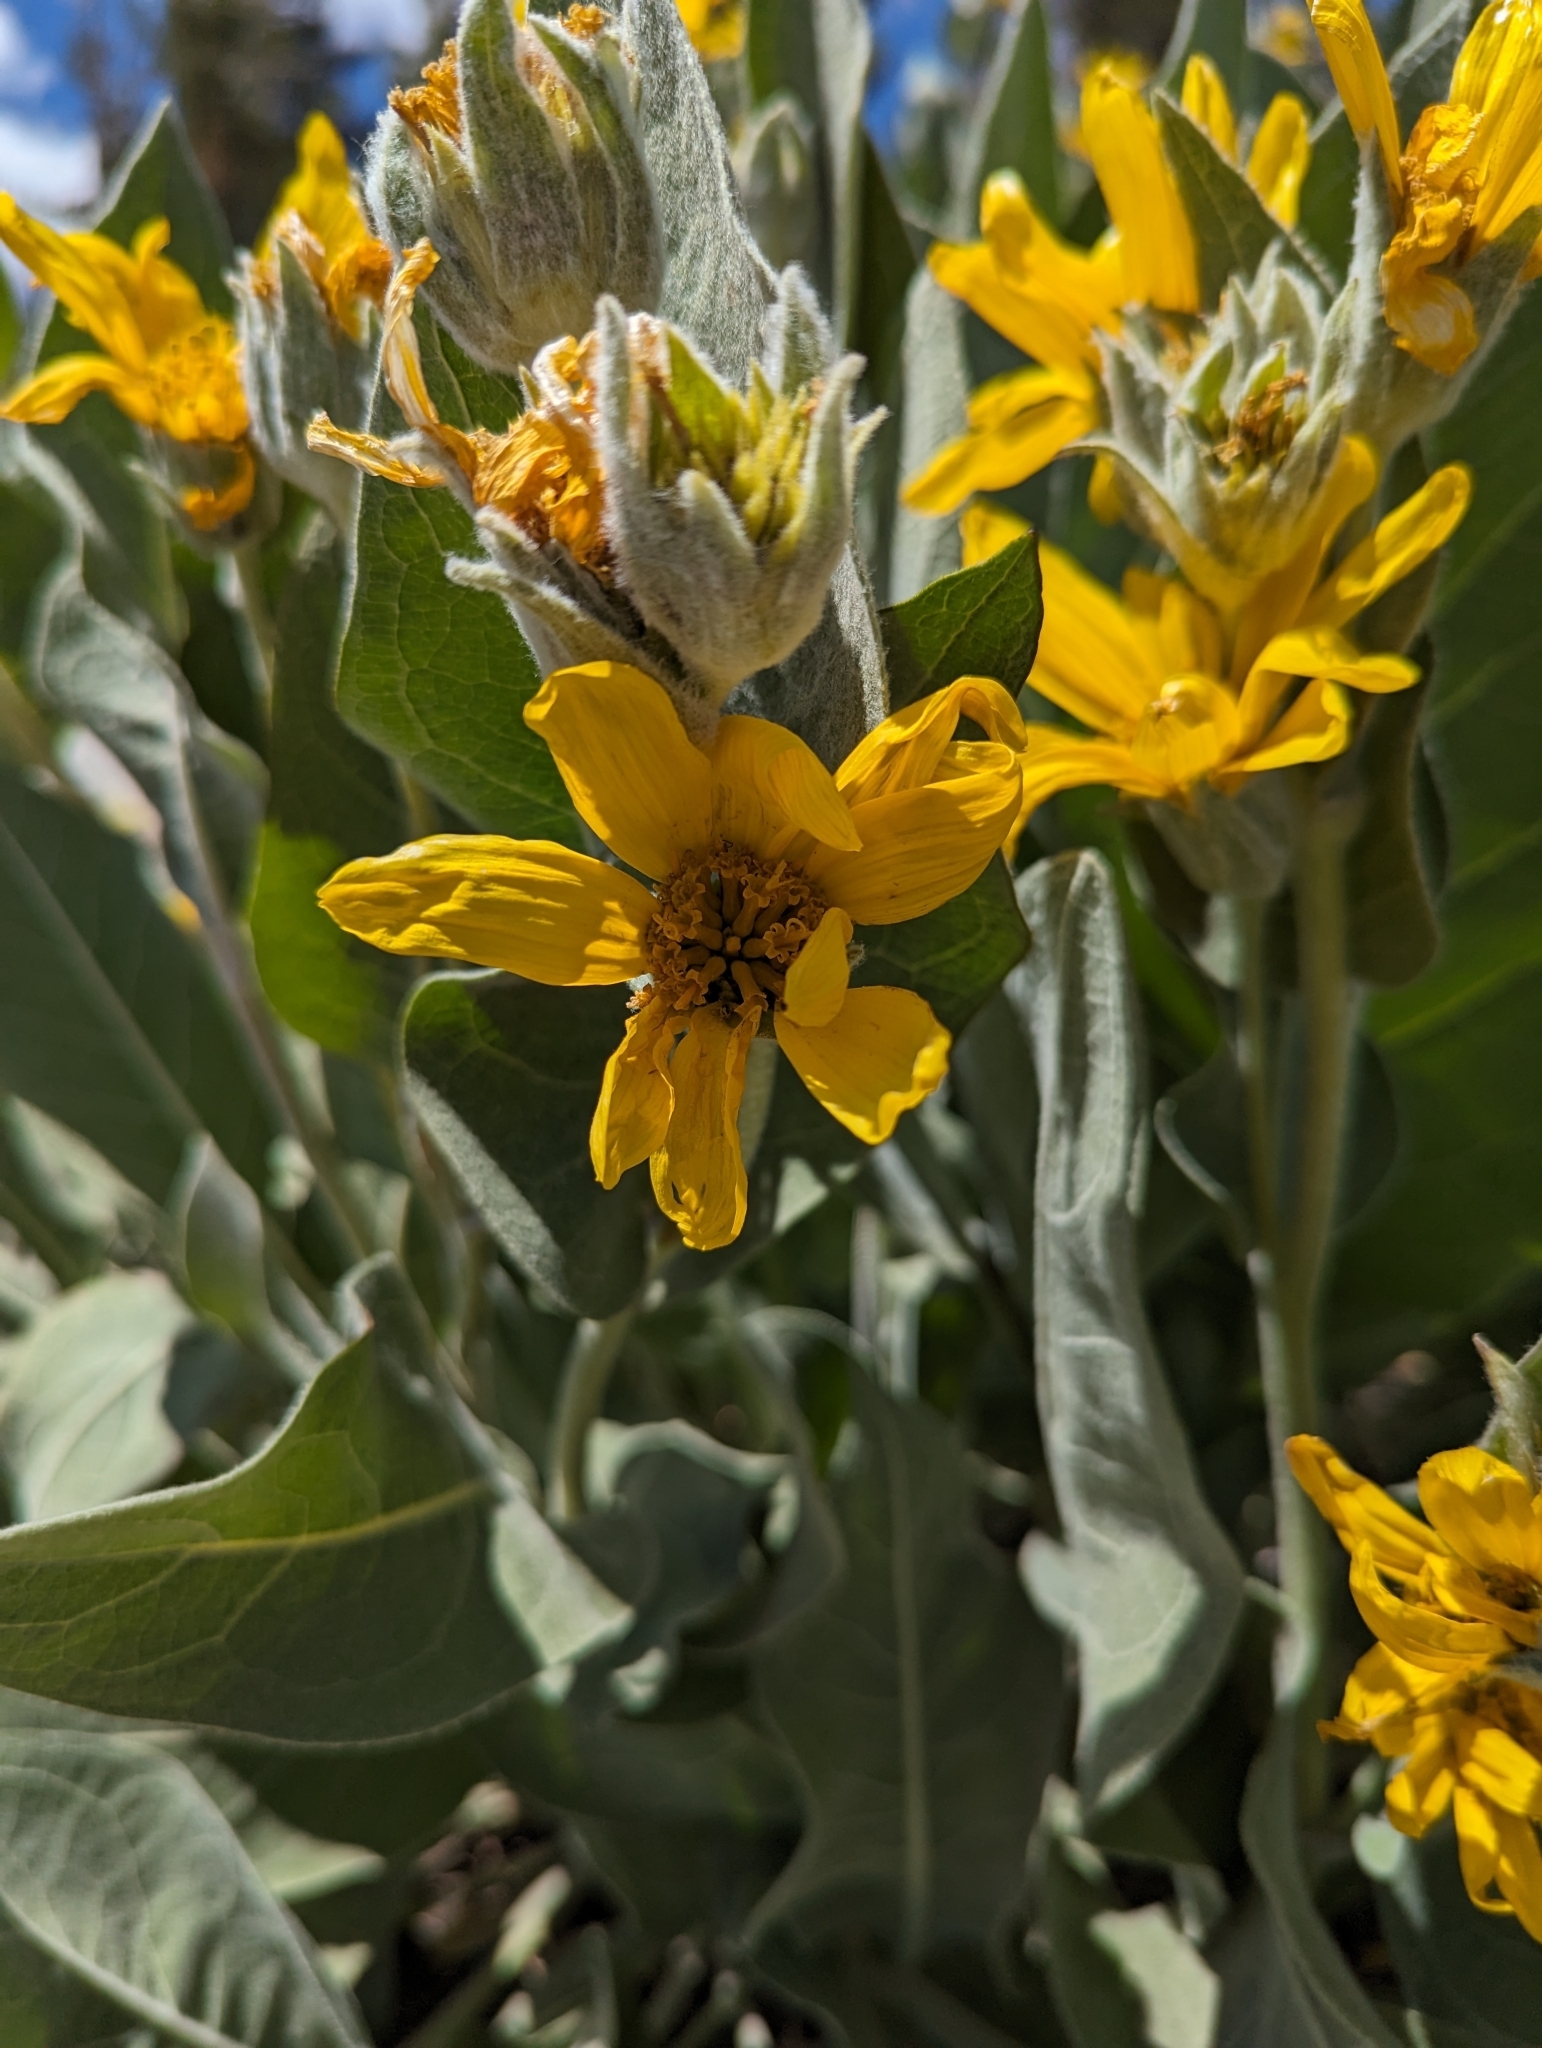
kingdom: Plantae
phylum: Tracheophyta
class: Magnoliopsida
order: Asterales
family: Asteraceae
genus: Wyethia
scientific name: Wyethia mollis
